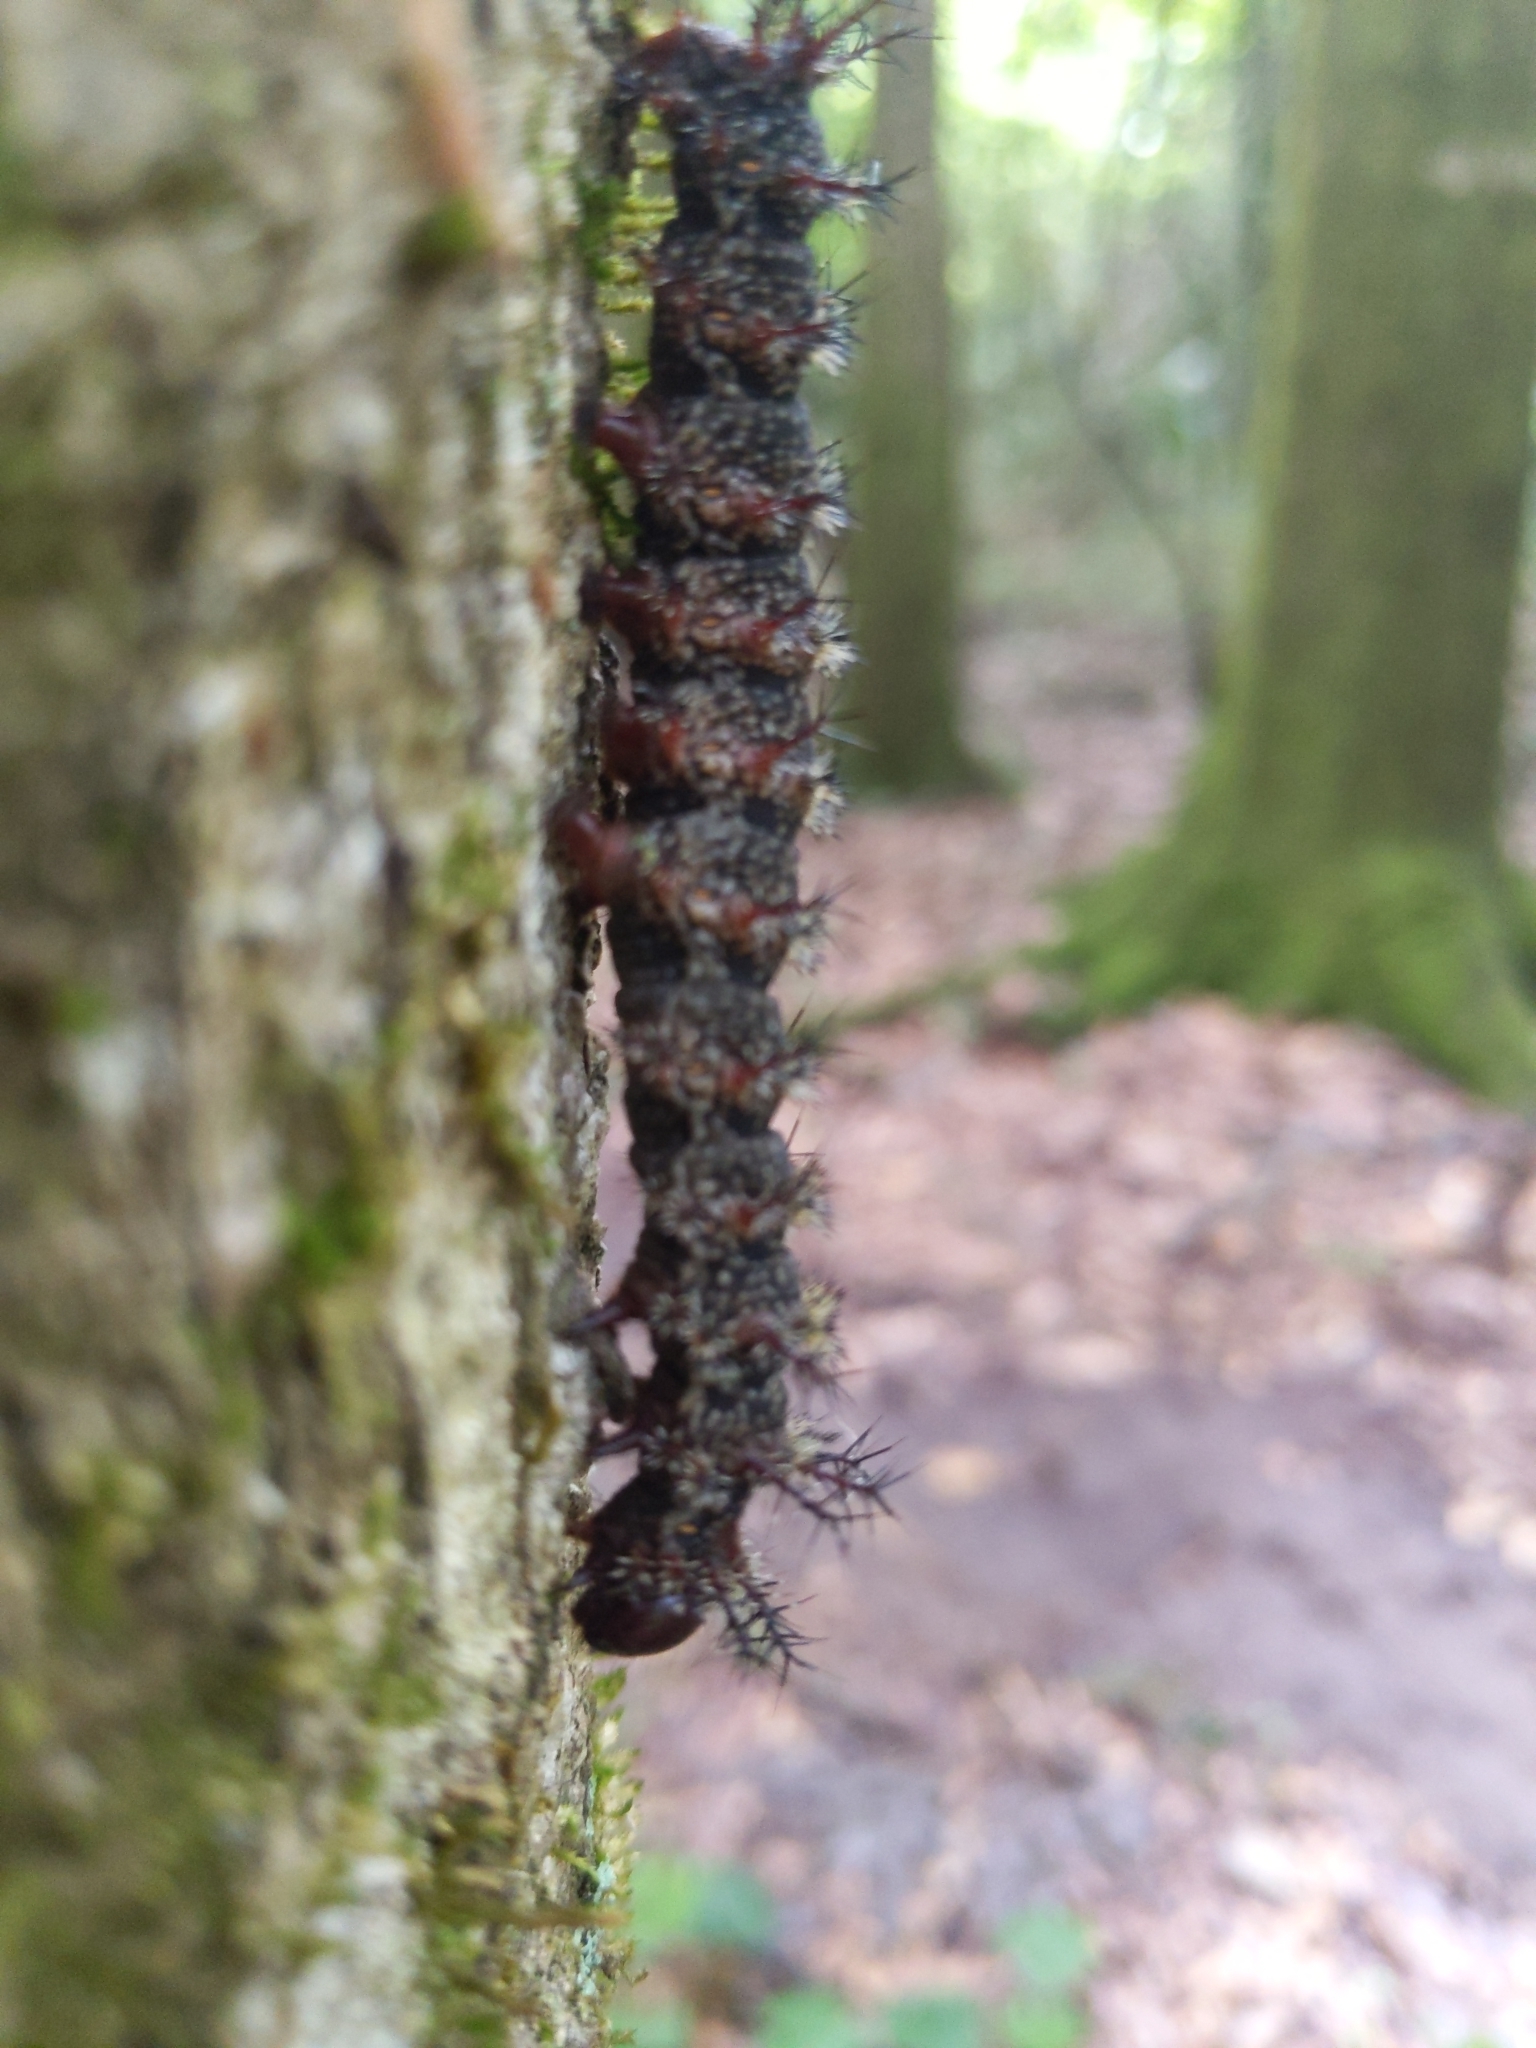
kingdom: Animalia
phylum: Arthropoda
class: Insecta
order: Lepidoptera
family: Saturniidae
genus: Hemileuca
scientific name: Hemileuca maia
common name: Eastern buckmoth
